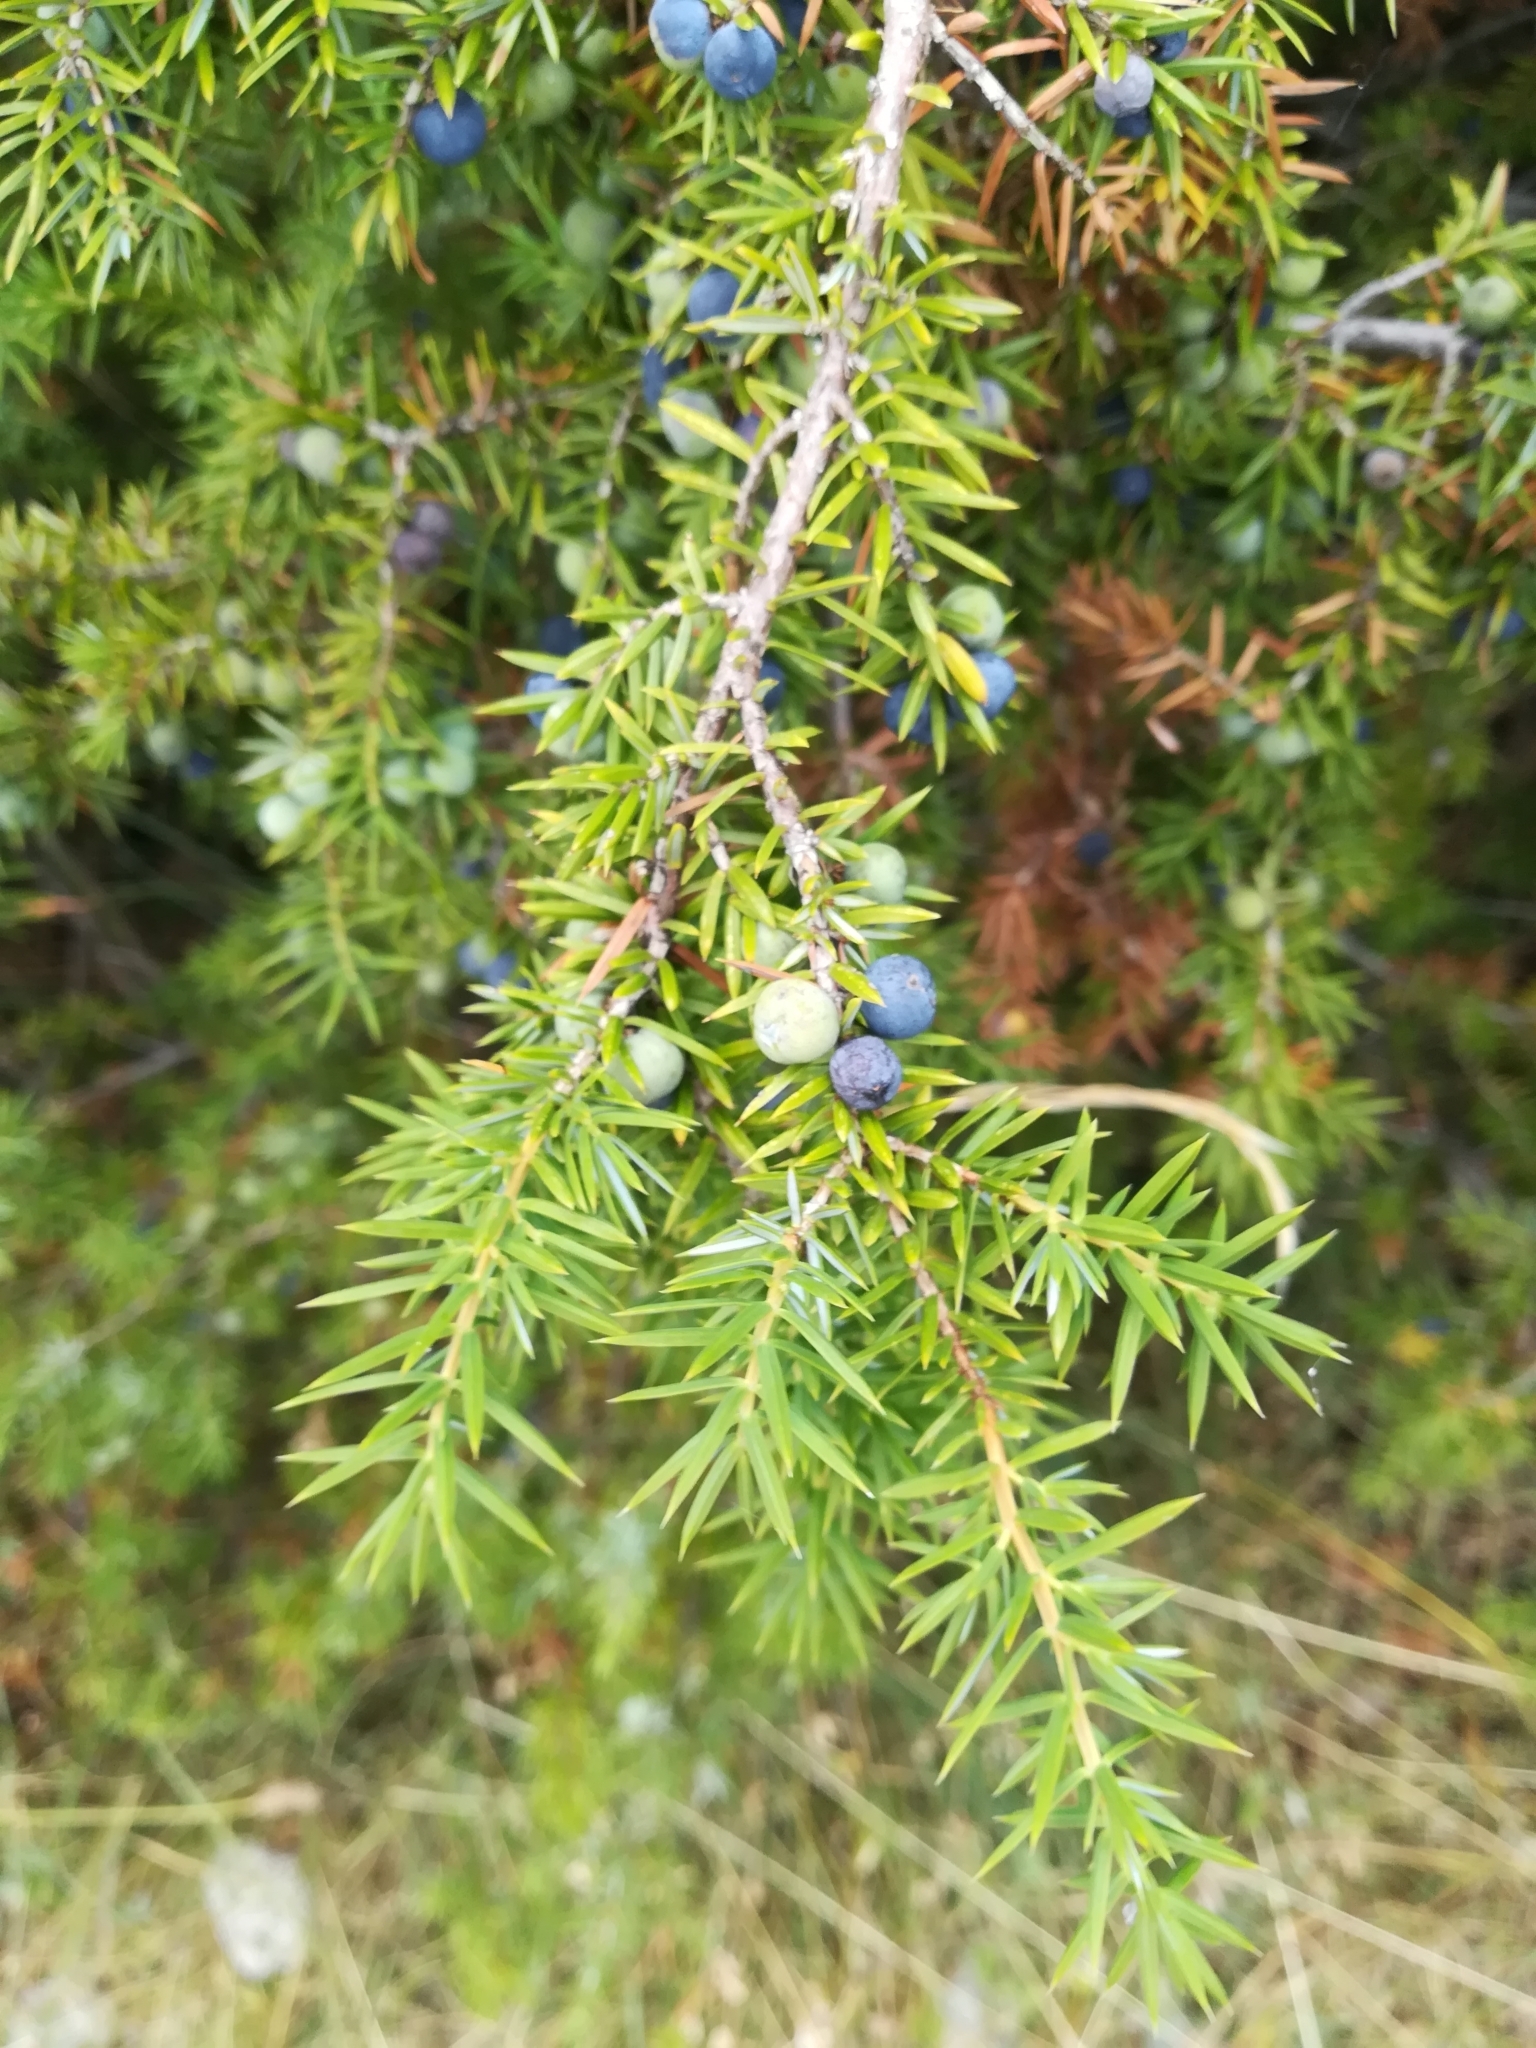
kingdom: Plantae
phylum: Tracheophyta
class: Pinopsida
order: Pinales
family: Cupressaceae
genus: Juniperus
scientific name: Juniperus communis
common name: Common juniper
